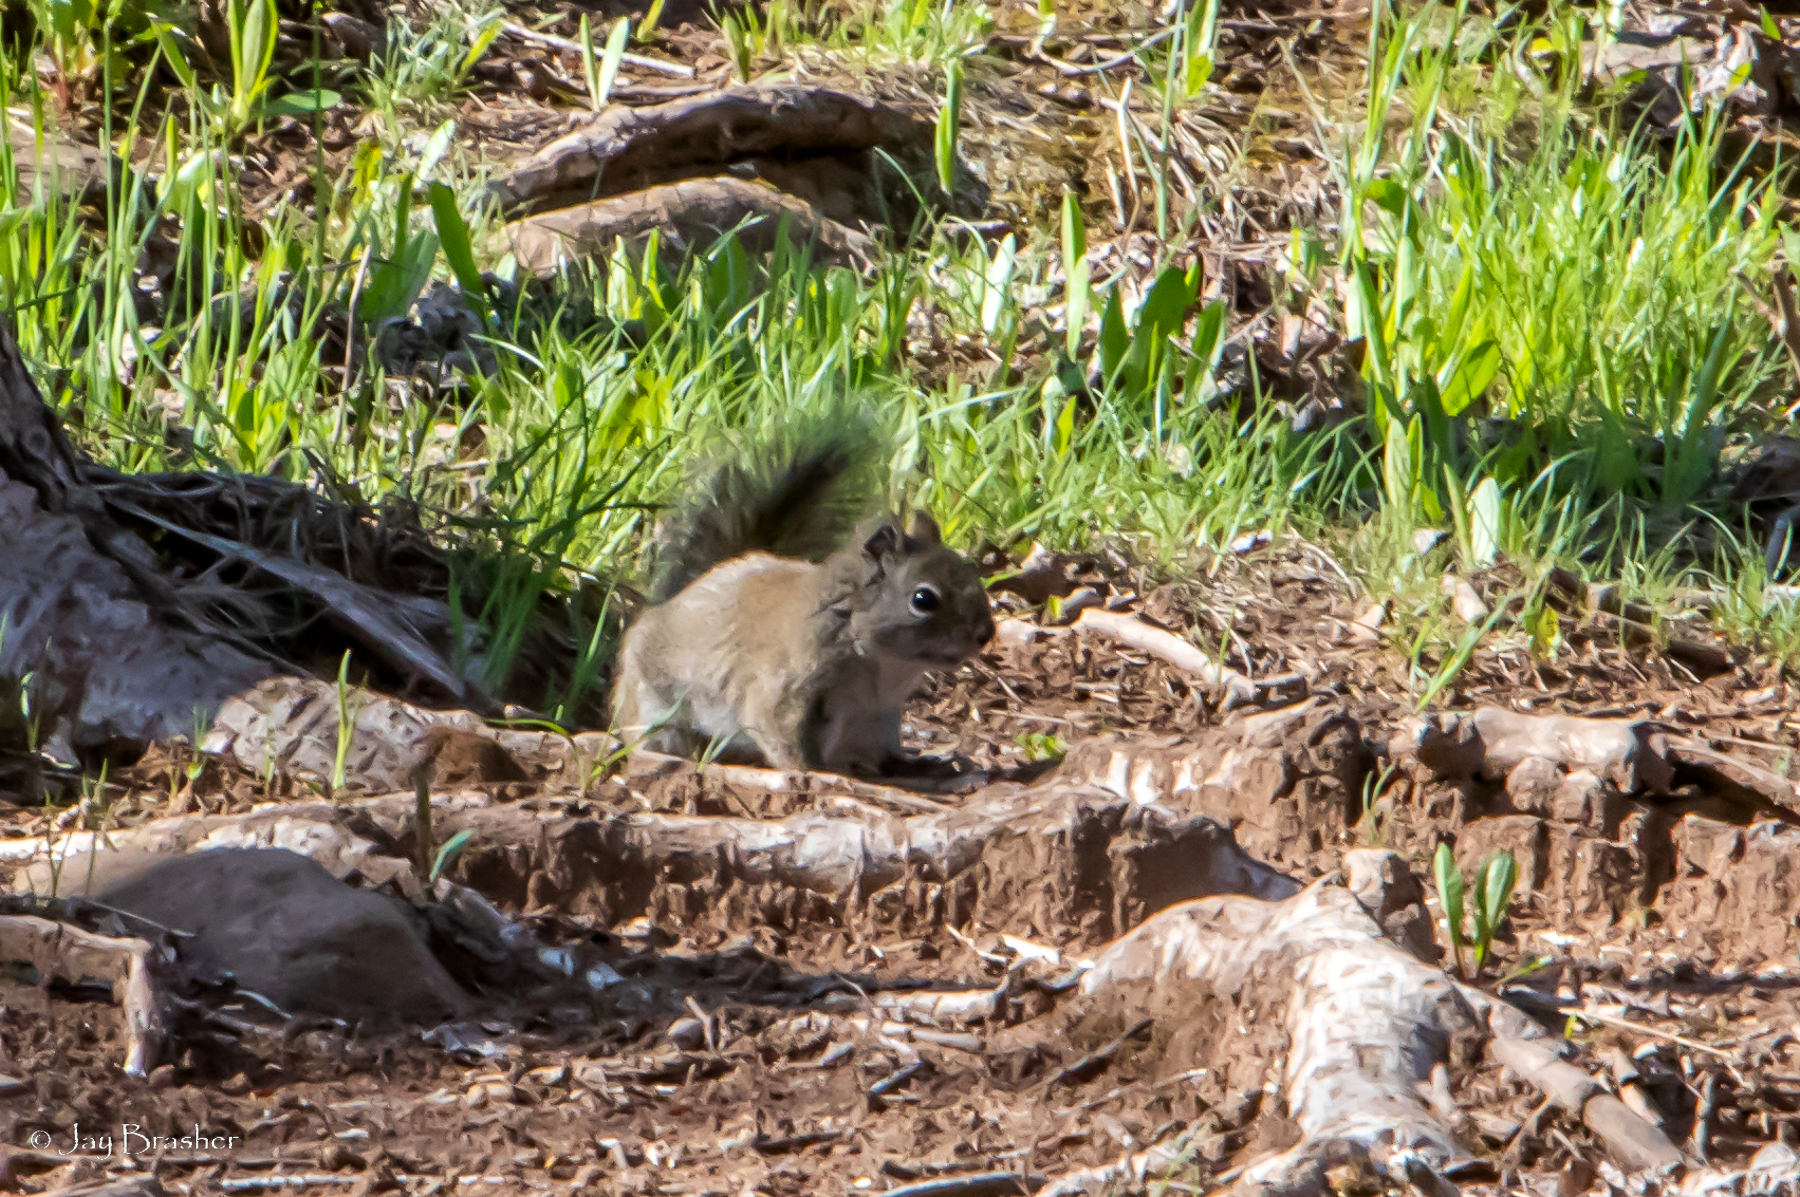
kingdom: Animalia
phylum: Chordata
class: Mammalia
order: Rodentia
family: Sciuridae
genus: Tamiasciurus
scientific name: Tamiasciurus hudsonicus
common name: Red squirrel
